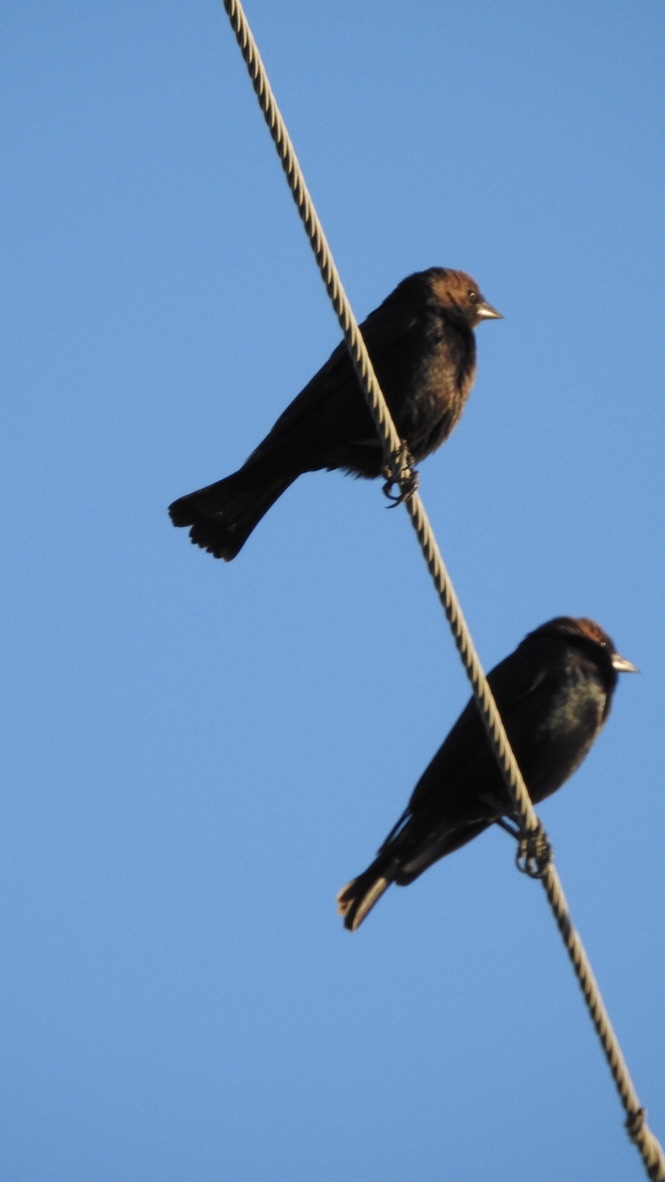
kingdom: Animalia
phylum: Chordata
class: Aves
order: Passeriformes
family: Icteridae
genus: Molothrus
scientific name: Molothrus ater
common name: Brown-headed cowbird
